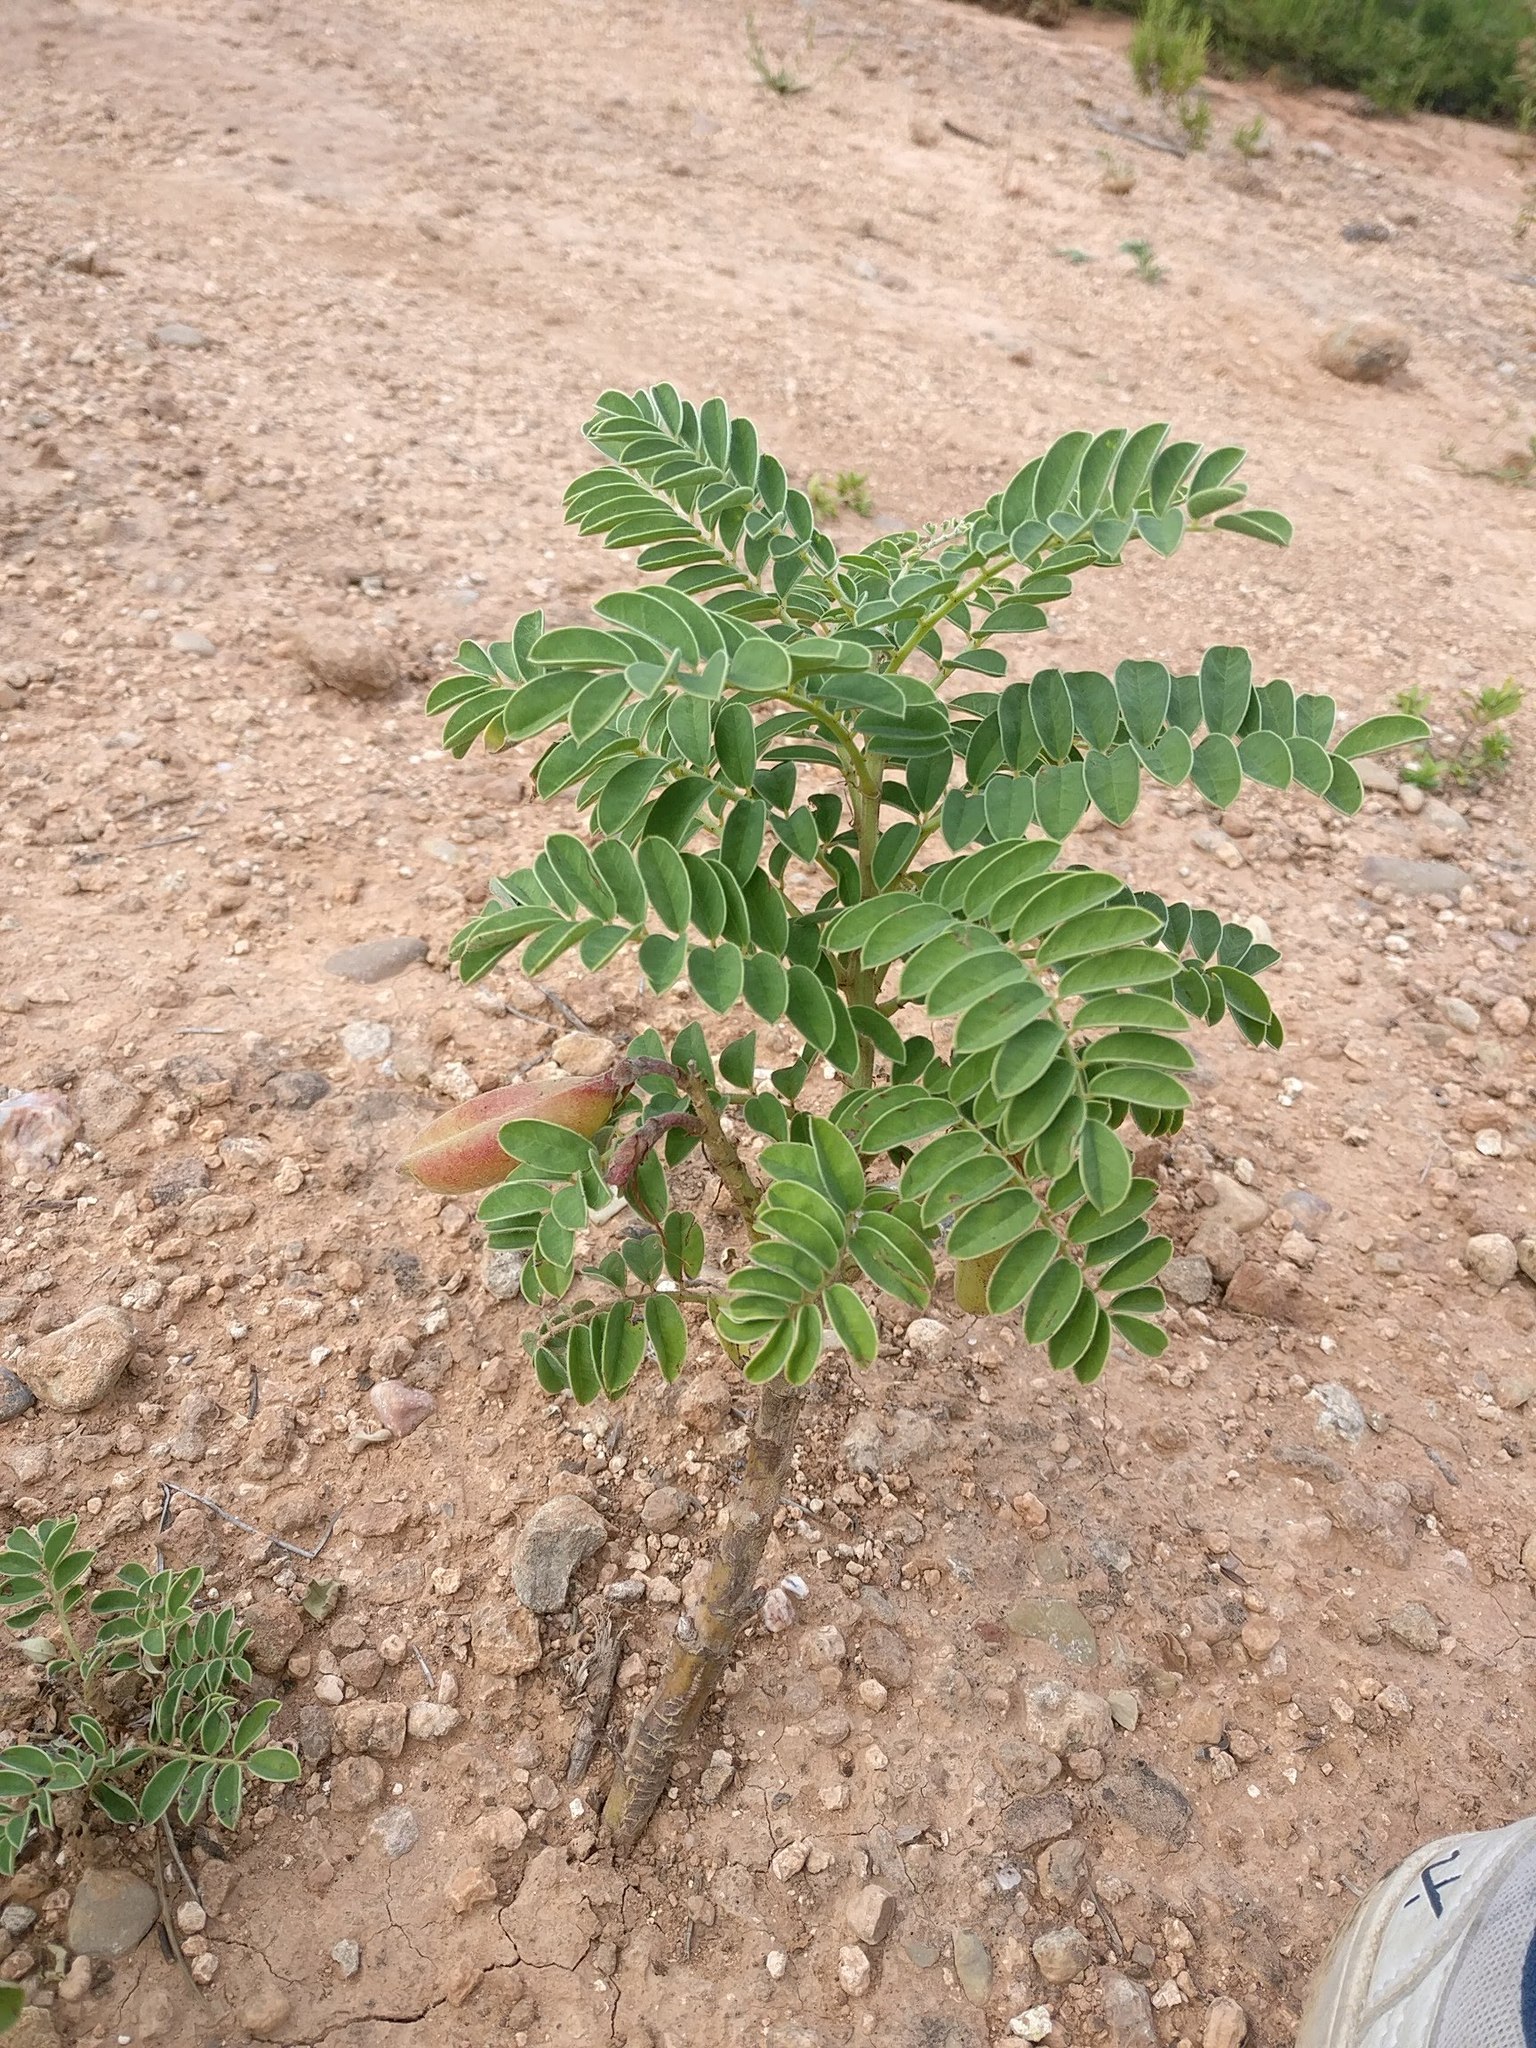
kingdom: Plantae
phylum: Tracheophyta
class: Magnoliopsida
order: Fabales
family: Fabaceae
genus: Erophaca
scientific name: Erophaca baetica
